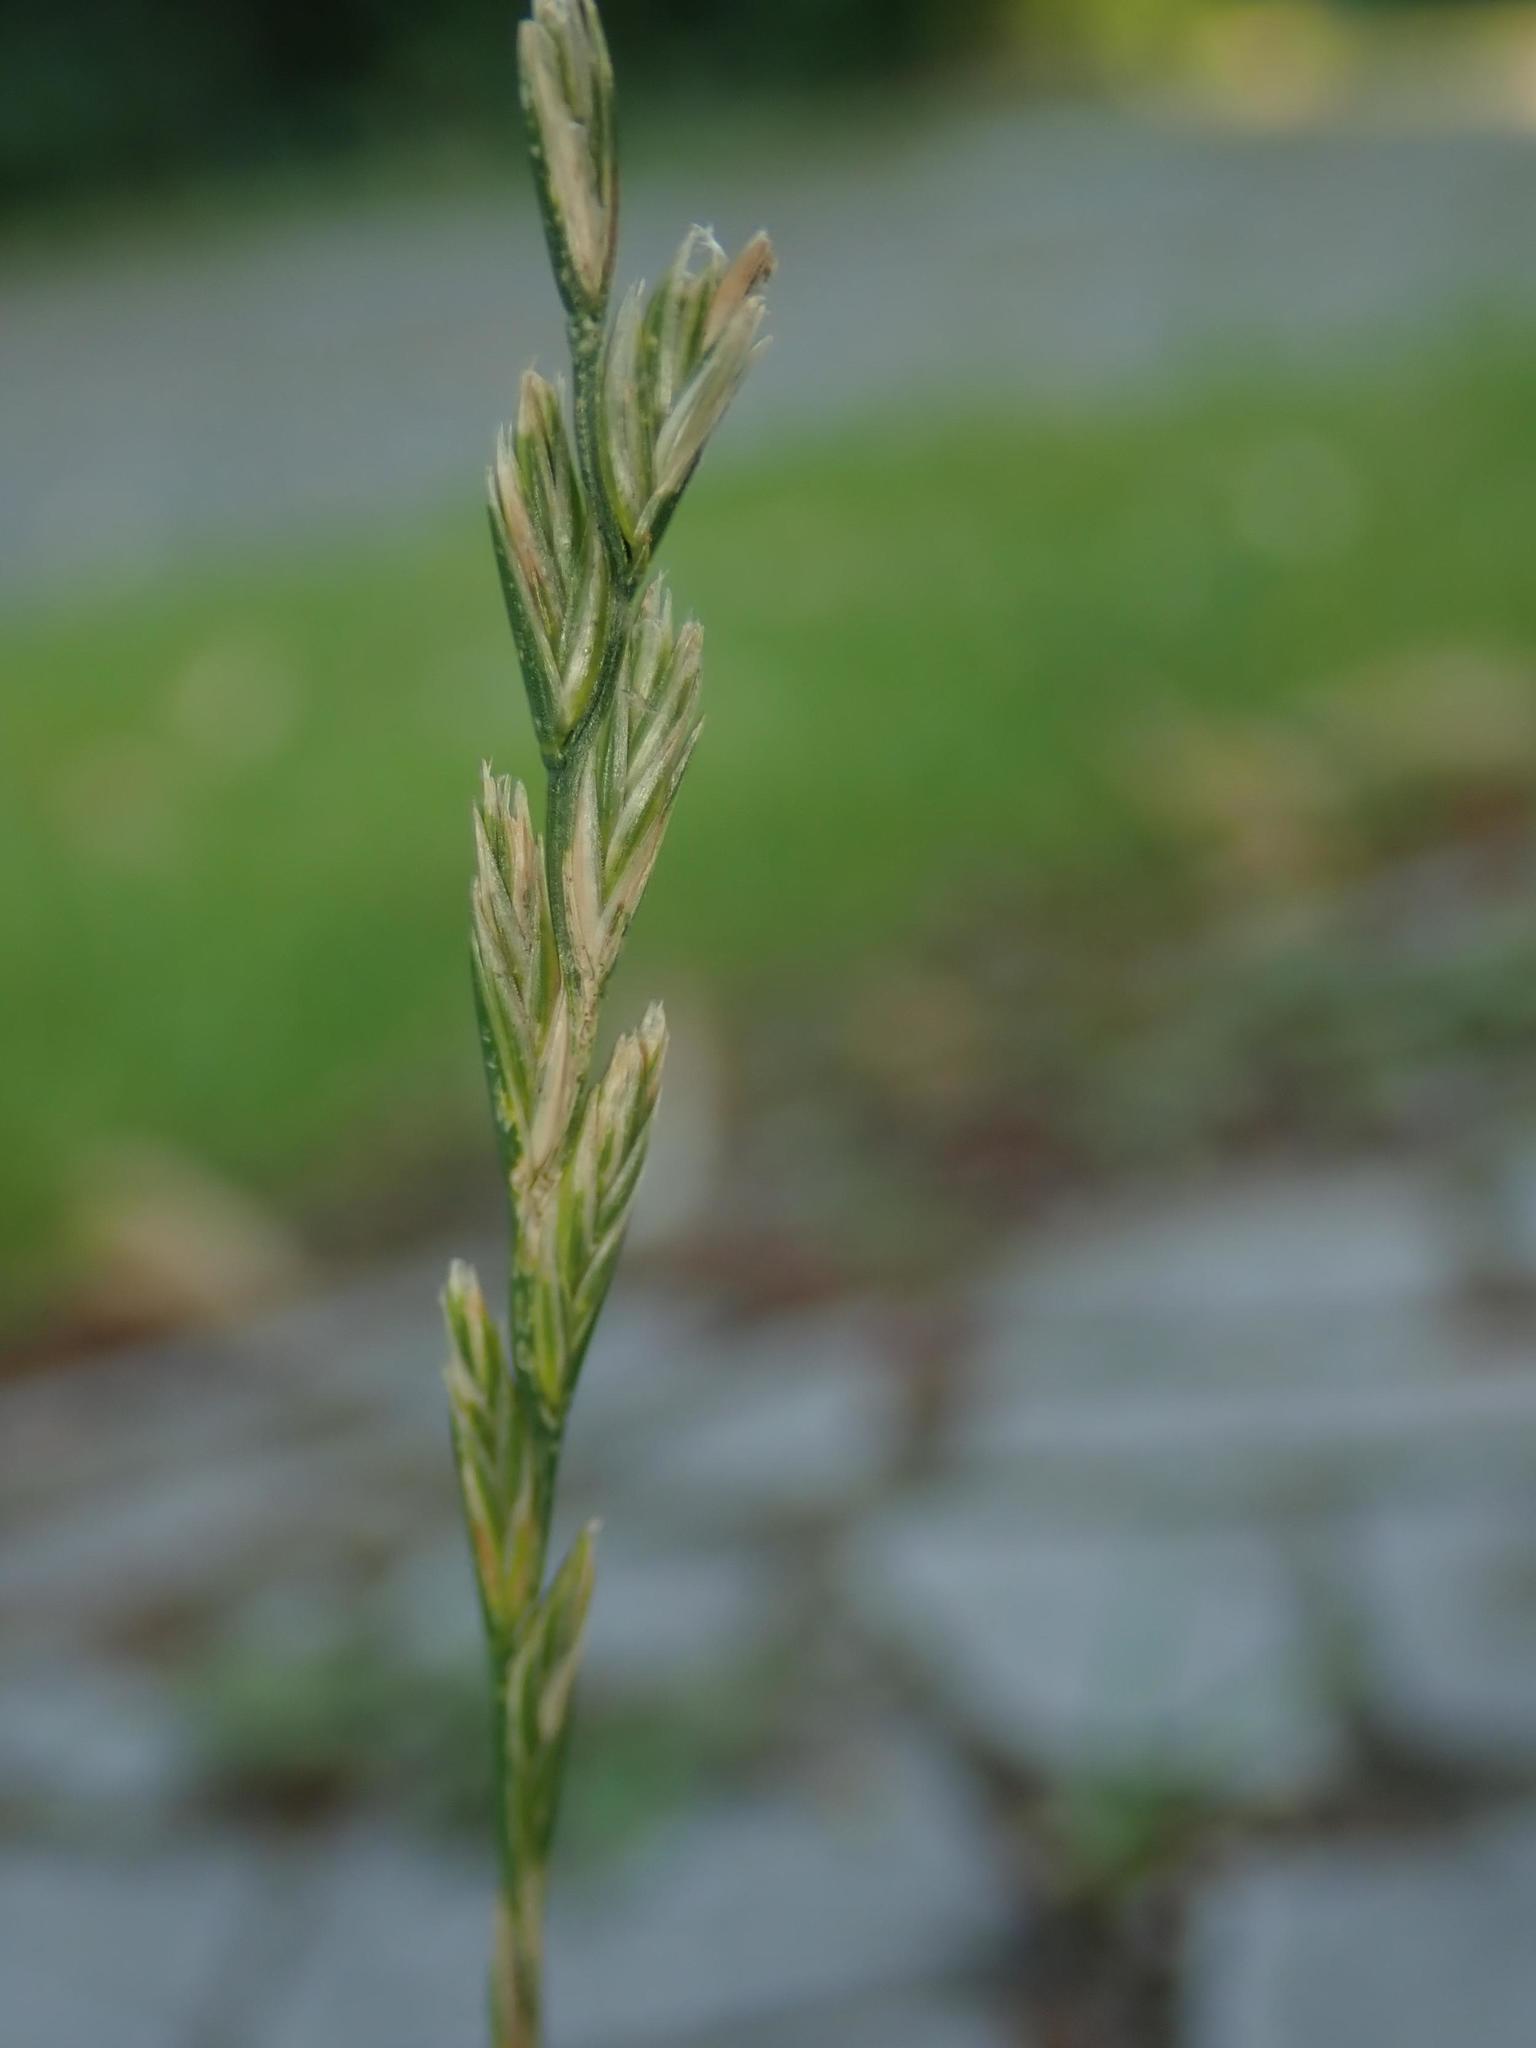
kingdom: Plantae
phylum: Tracheophyta
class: Liliopsida
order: Poales
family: Poaceae
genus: Lolium
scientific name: Lolium perenne
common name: Perennial ryegrass
